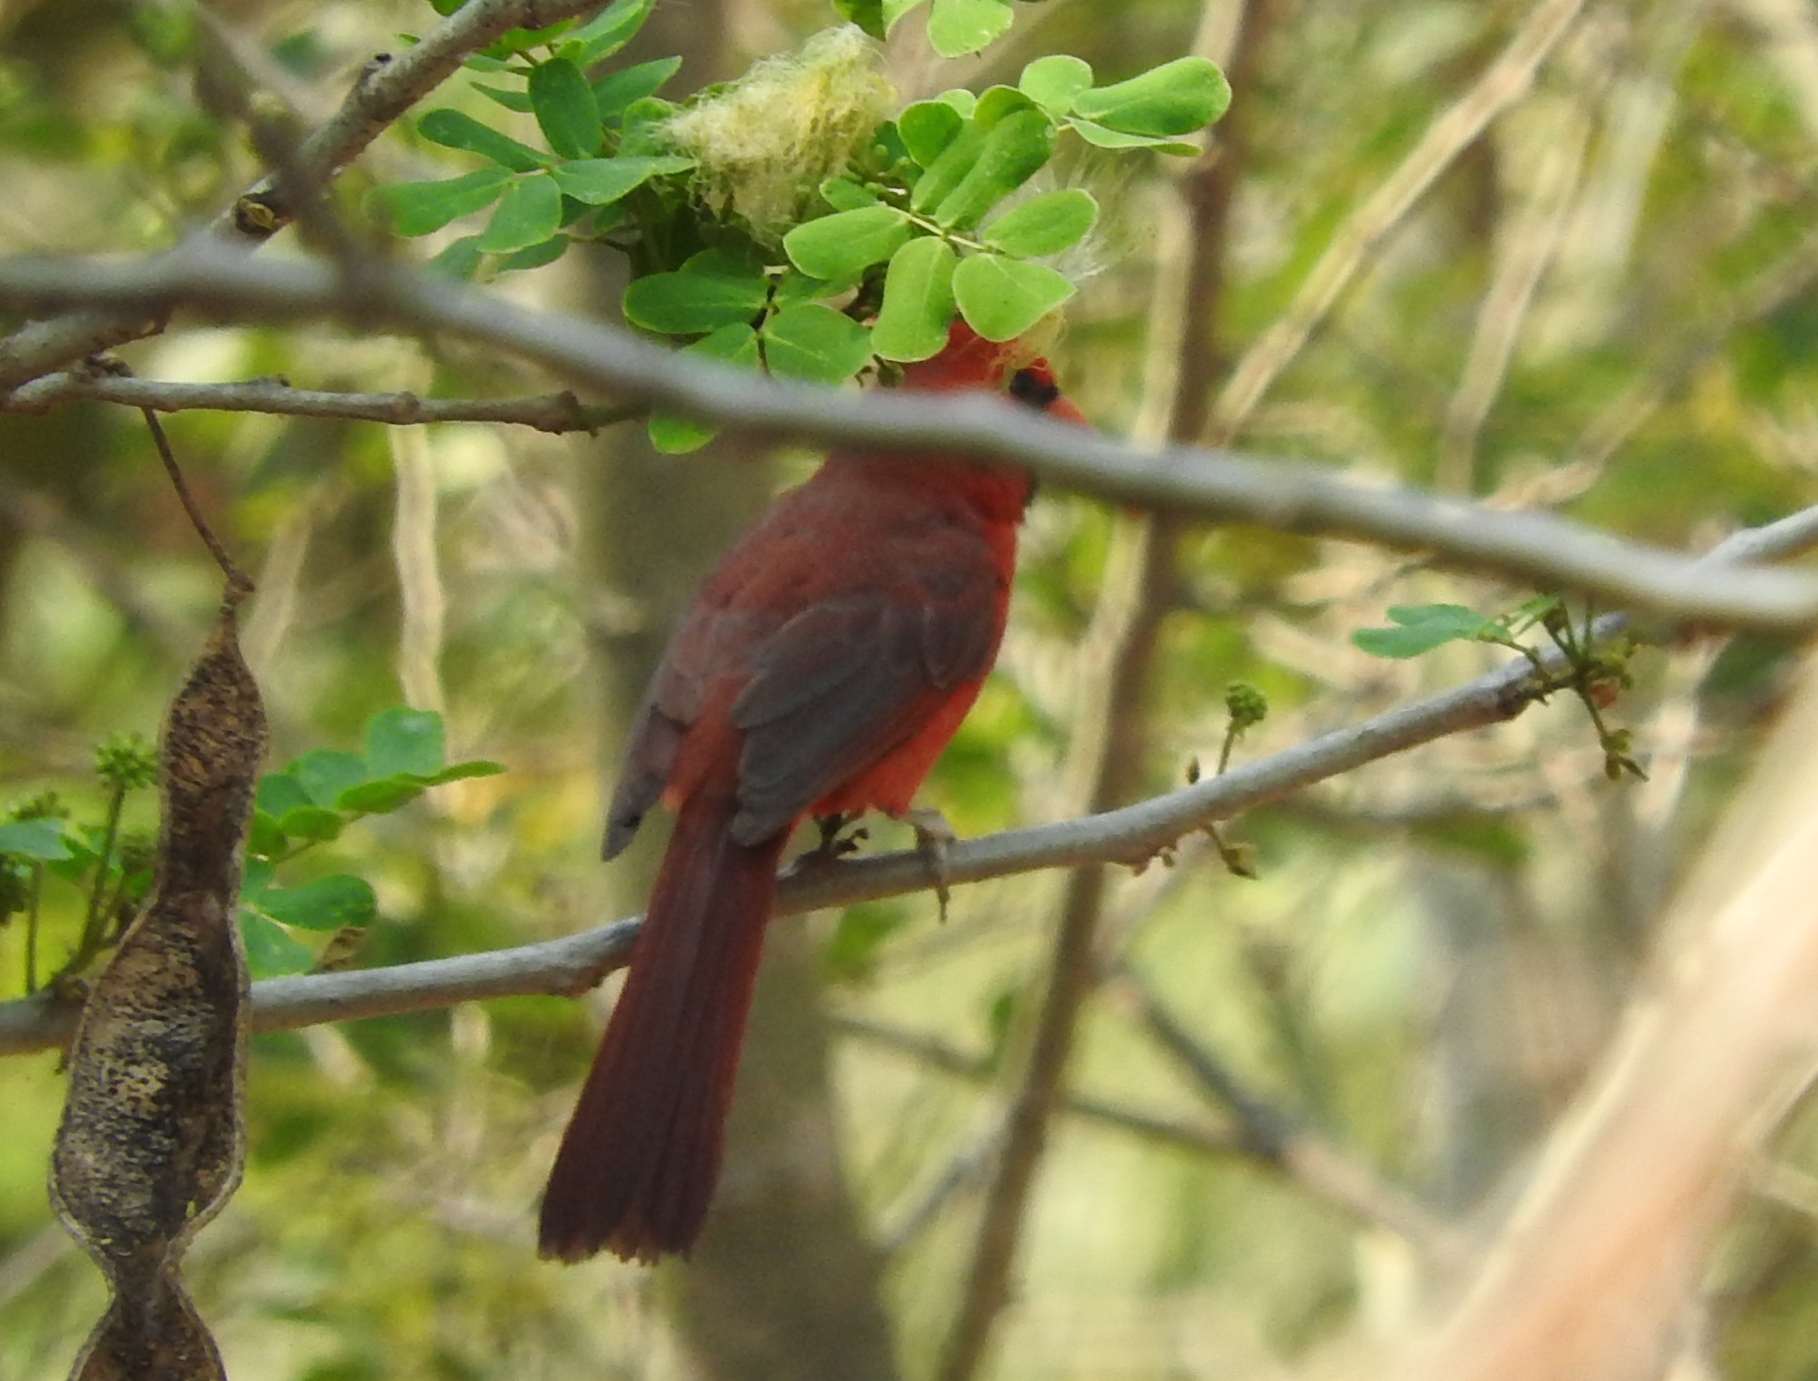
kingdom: Animalia
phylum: Chordata
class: Aves
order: Passeriformes
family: Cardinalidae
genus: Cardinalis
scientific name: Cardinalis cardinalis
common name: Northern cardinal
